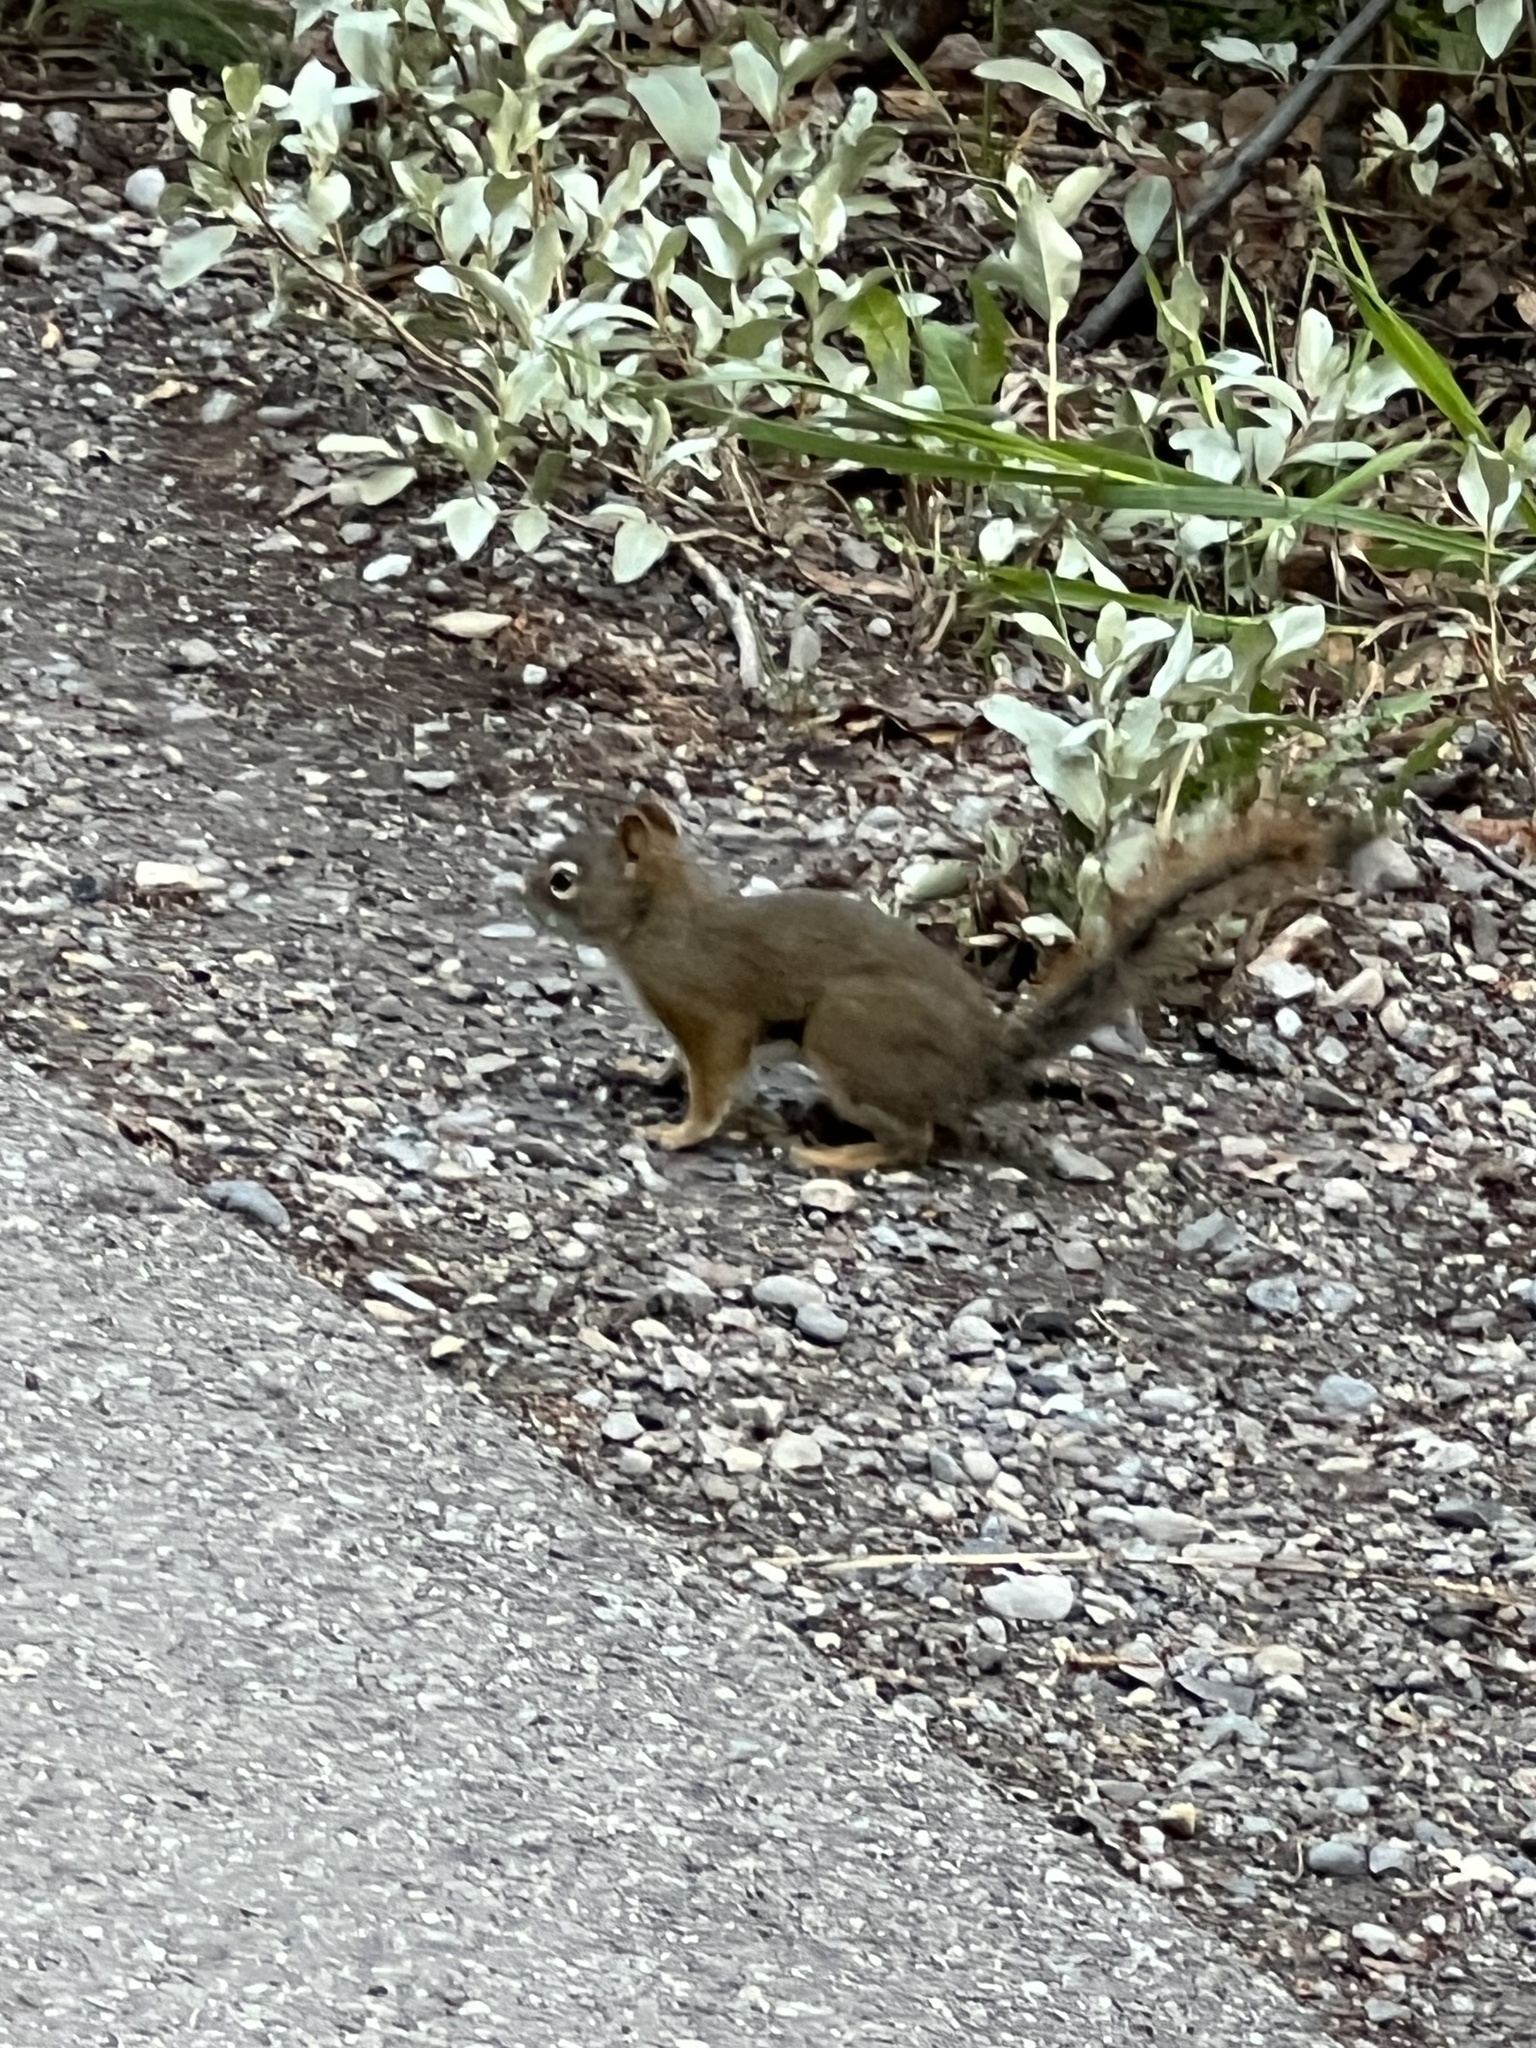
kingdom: Animalia
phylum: Chordata
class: Mammalia
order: Rodentia
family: Sciuridae
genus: Tamiasciurus
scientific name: Tamiasciurus hudsonicus
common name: Red squirrel
